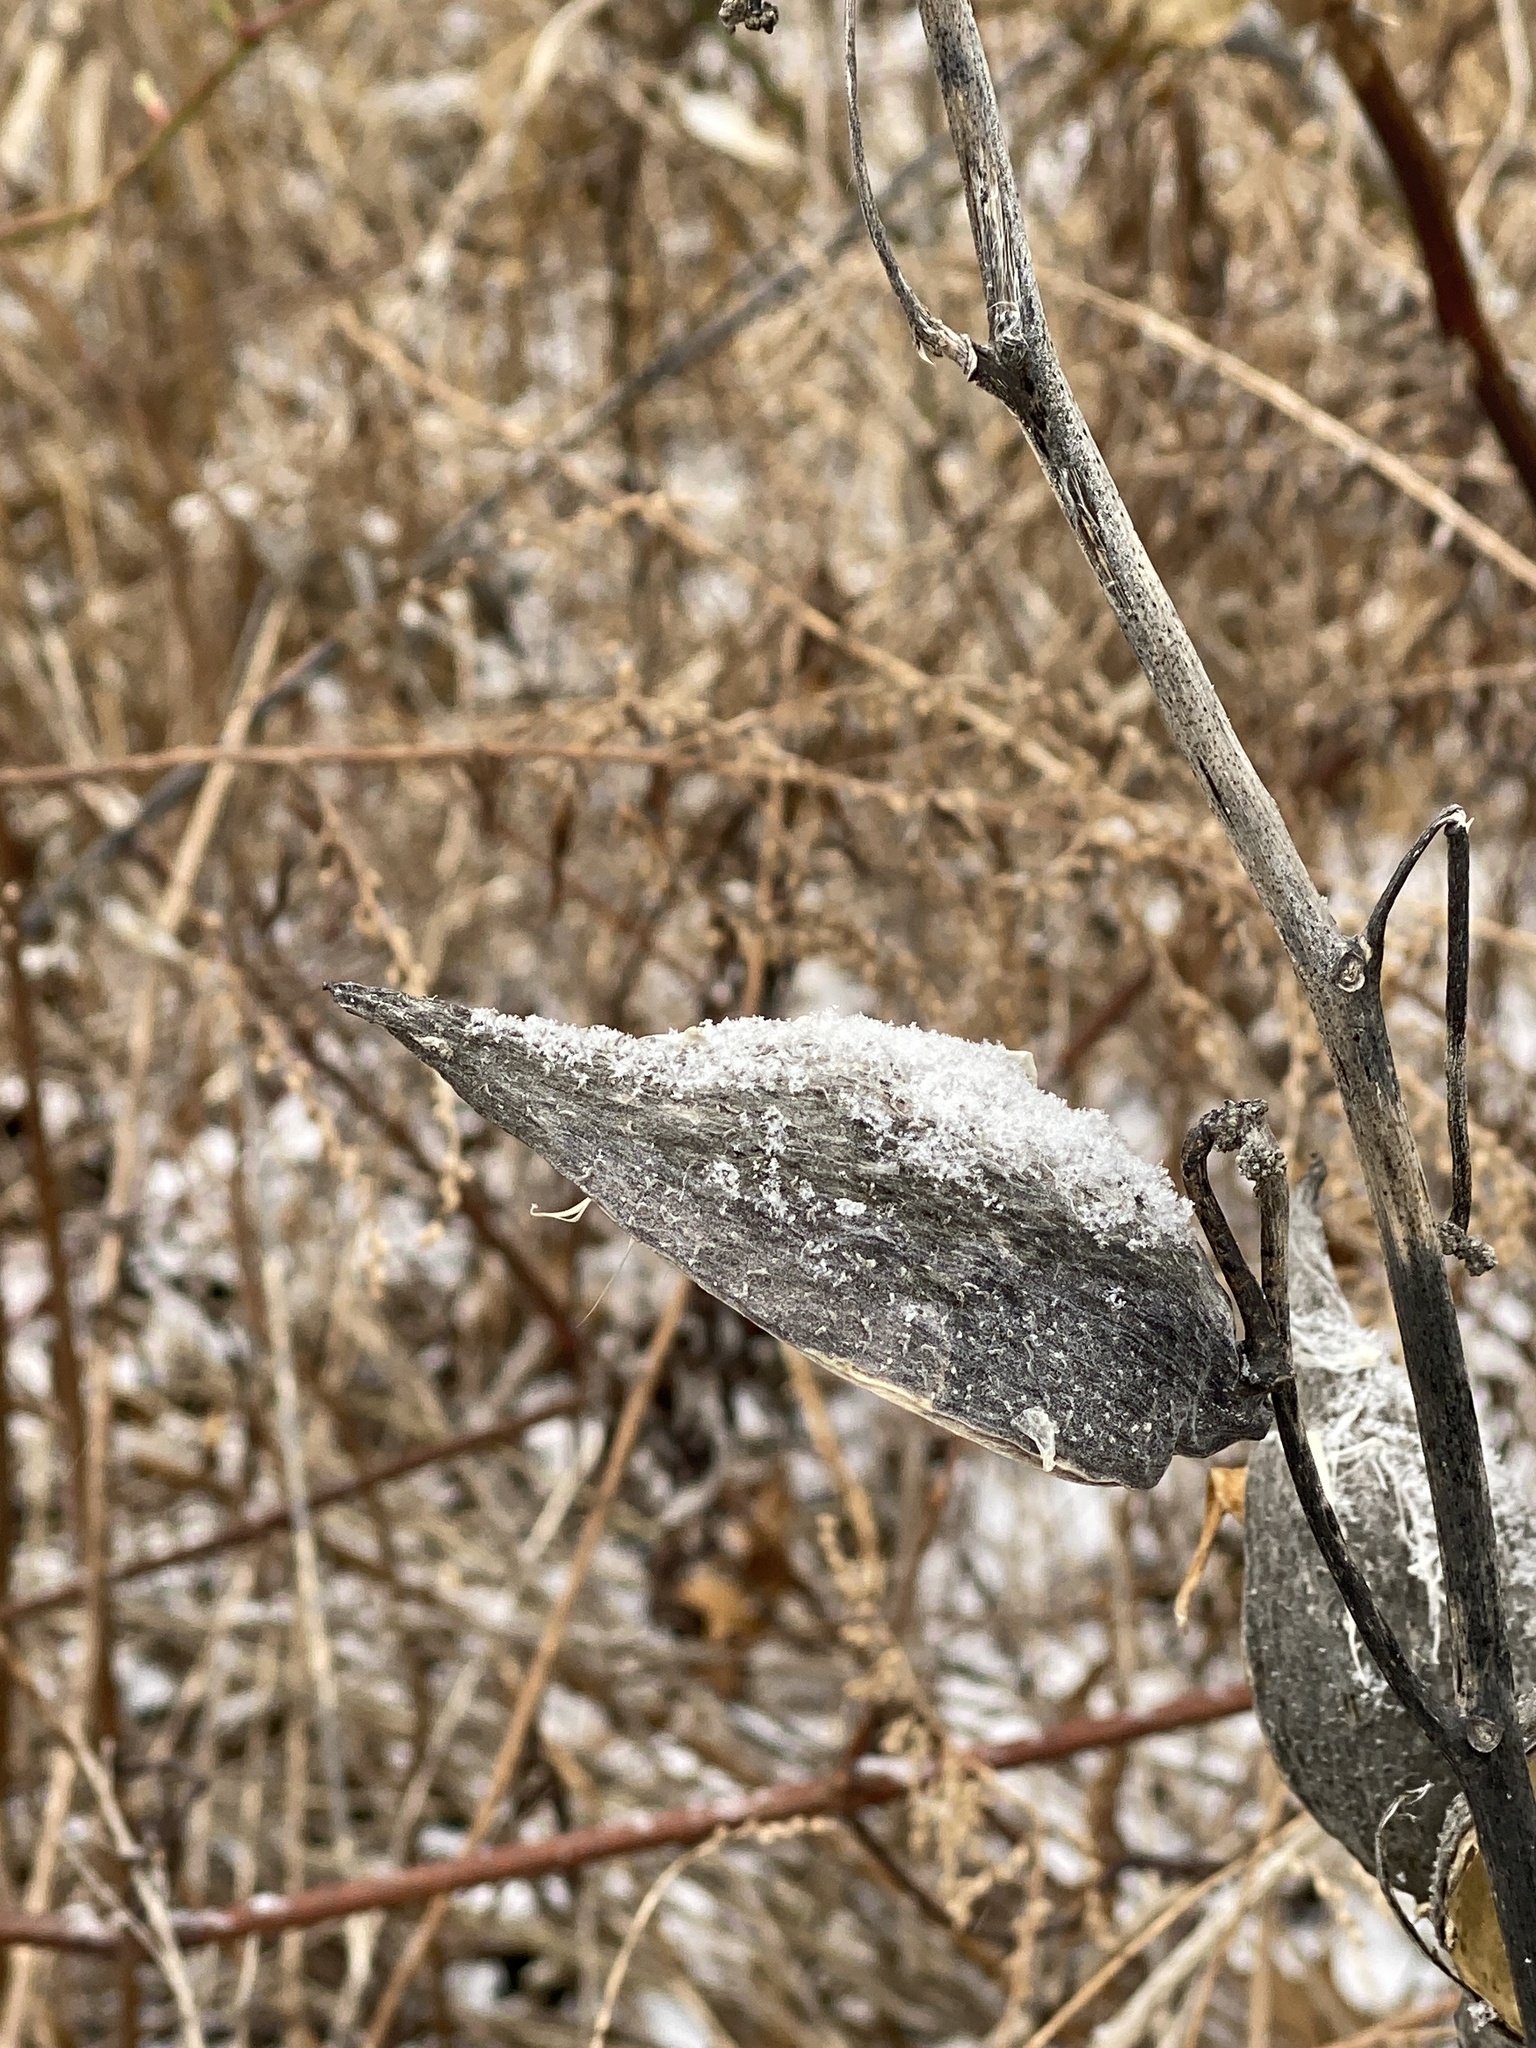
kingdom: Plantae
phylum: Tracheophyta
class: Magnoliopsida
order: Gentianales
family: Apocynaceae
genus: Asclepias
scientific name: Asclepias syriaca
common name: Common milkweed
